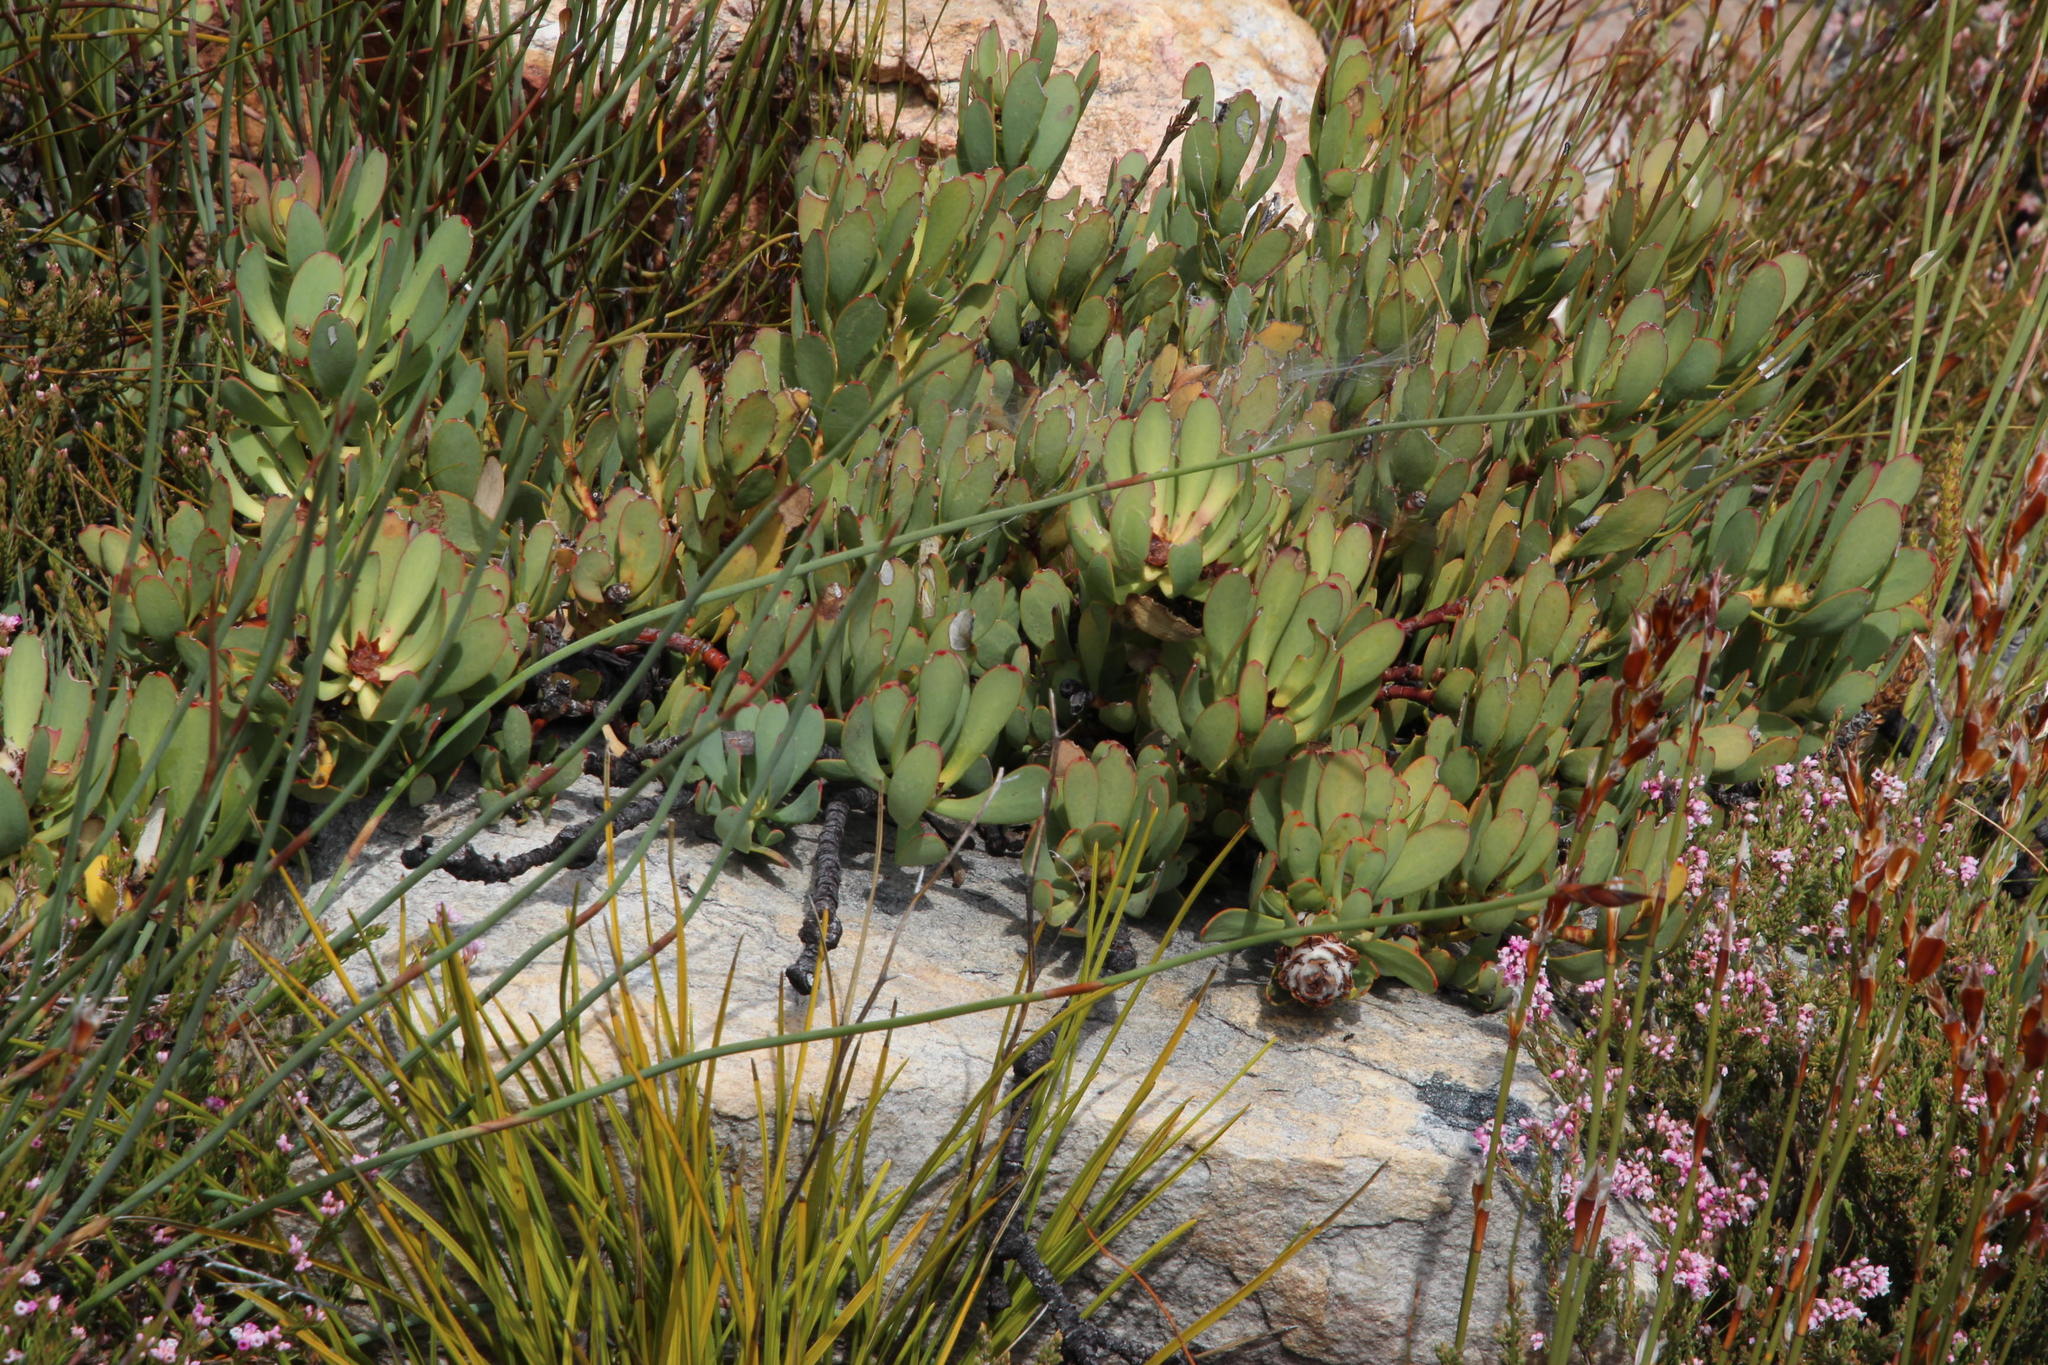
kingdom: Plantae
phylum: Tracheophyta
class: Magnoliopsida
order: Proteales
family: Proteaceae
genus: Leucadendron
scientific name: Leucadendron arcuatum
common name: Red-edge conebush
